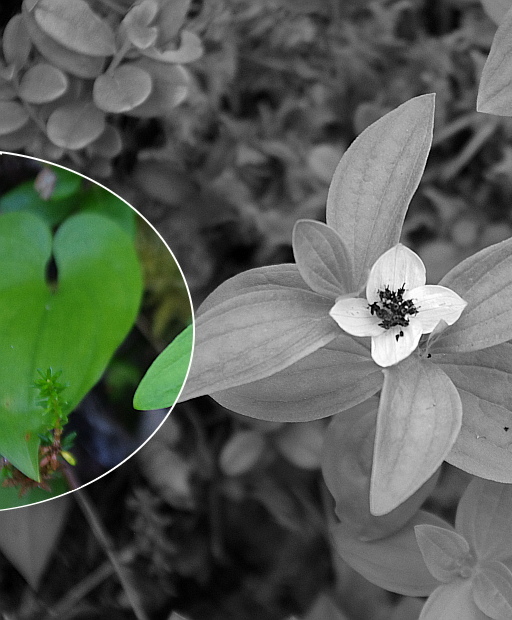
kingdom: Plantae
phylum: Tracheophyta
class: Liliopsida
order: Asparagales
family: Asparagaceae
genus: Maianthemum
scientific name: Maianthemum bifolium
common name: May lily
